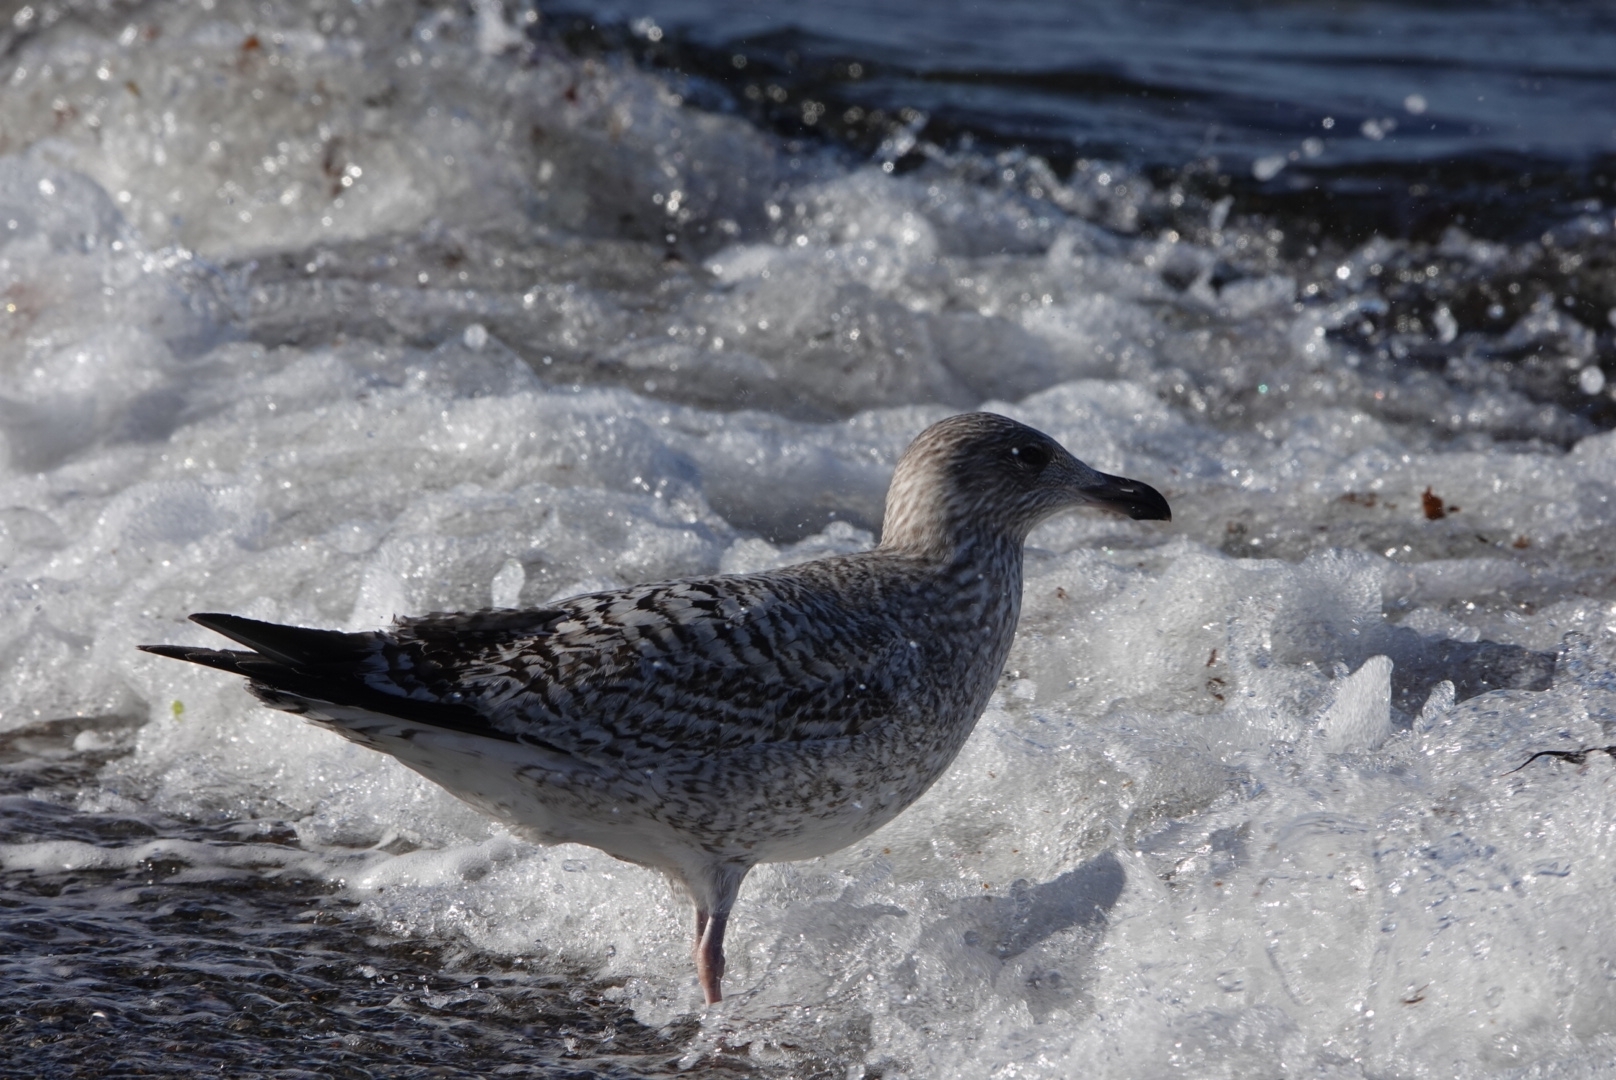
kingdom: Animalia
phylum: Chordata
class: Aves
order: Charadriiformes
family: Laridae
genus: Larus
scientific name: Larus argentatus
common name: Herring gull
